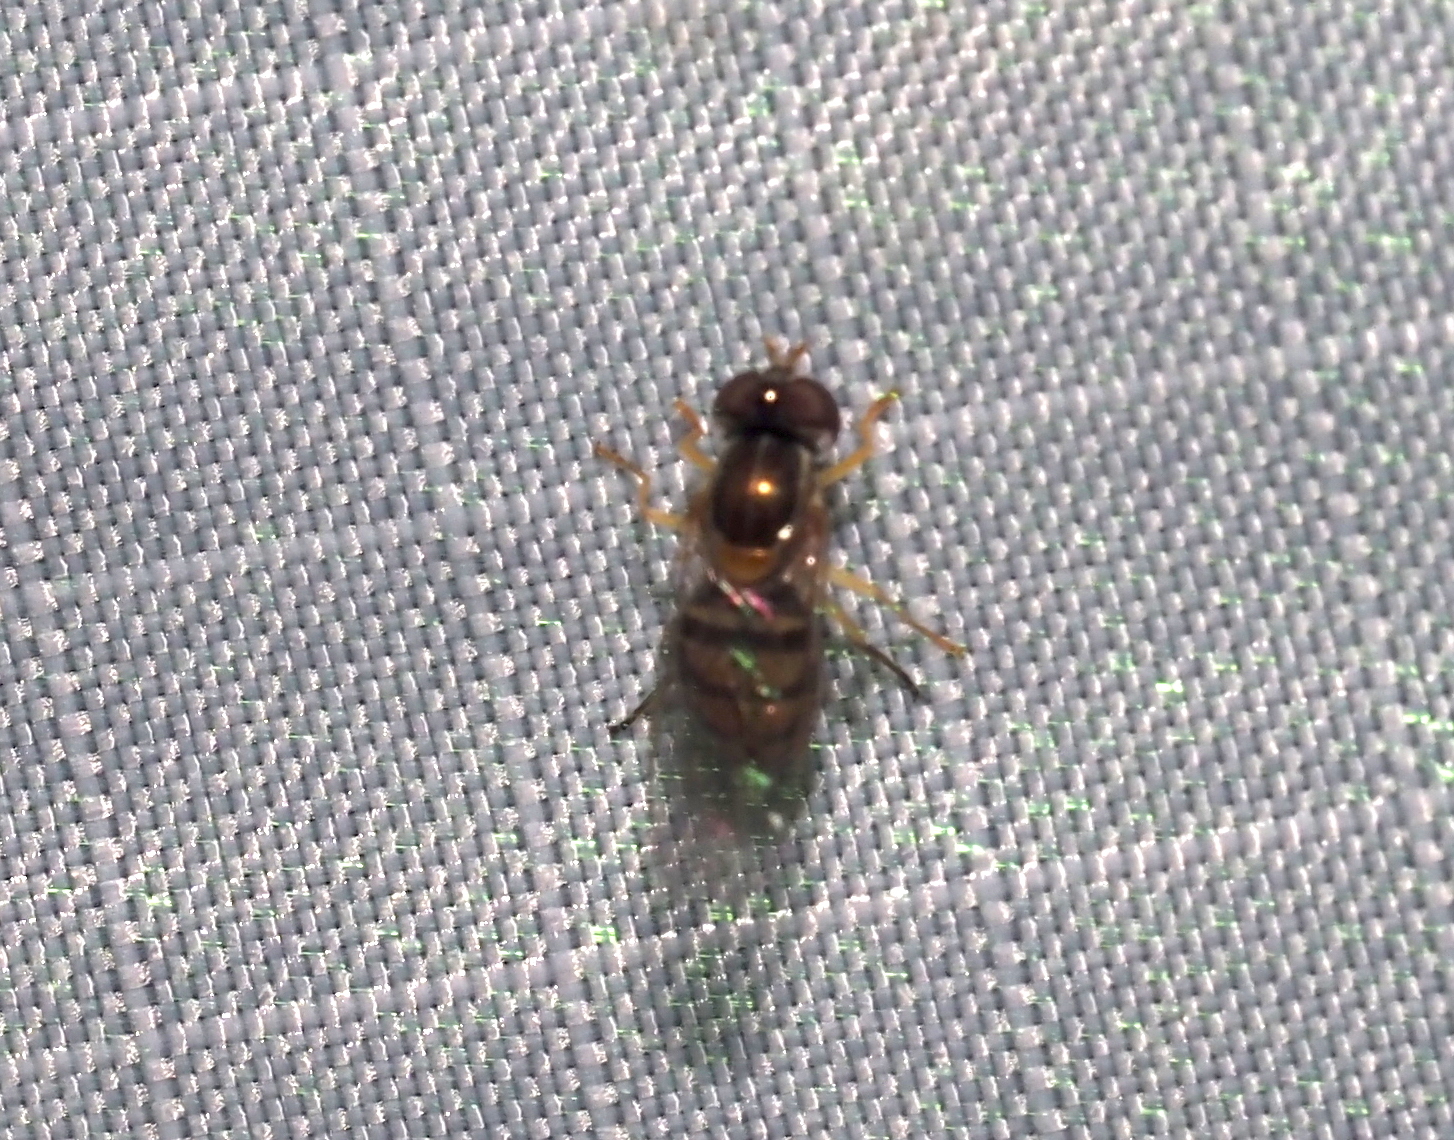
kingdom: Animalia
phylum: Arthropoda
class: Insecta
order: Diptera
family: Syrphidae
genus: Toxomerus
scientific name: Toxomerus marginatus
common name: Syrphid fly
